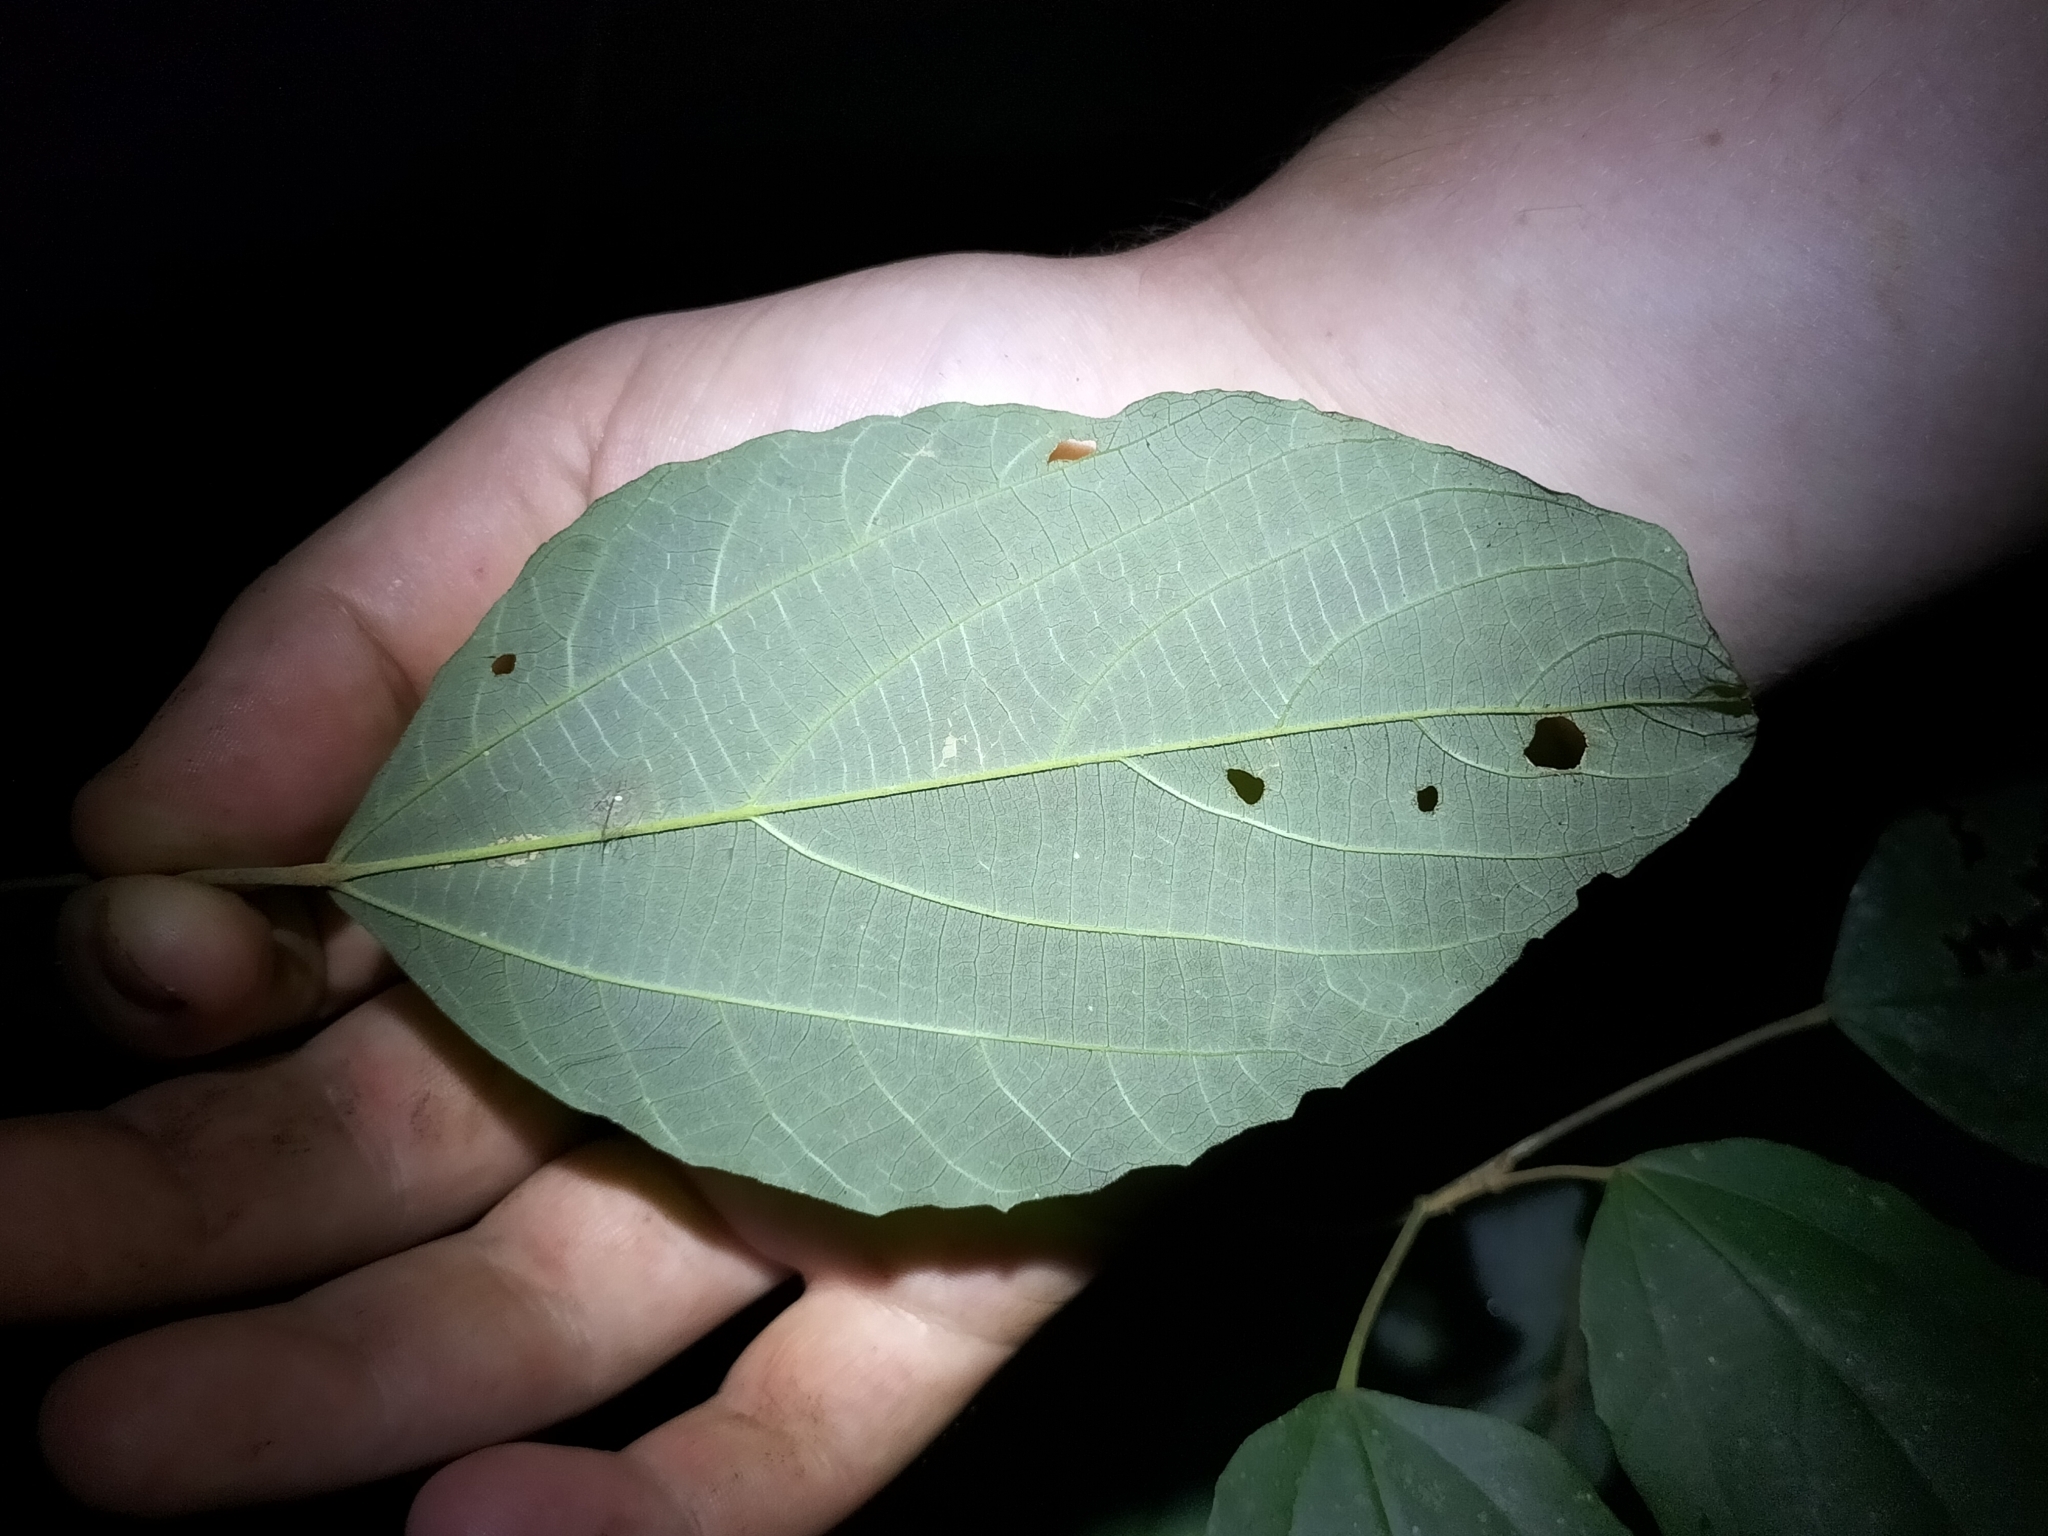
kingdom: Plantae
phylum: Tracheophyta
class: Magnoliopsida
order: Malpighiales
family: Euphorbiaceae
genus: Mallotus
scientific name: Mallotus philippensis
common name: Kamala tree
